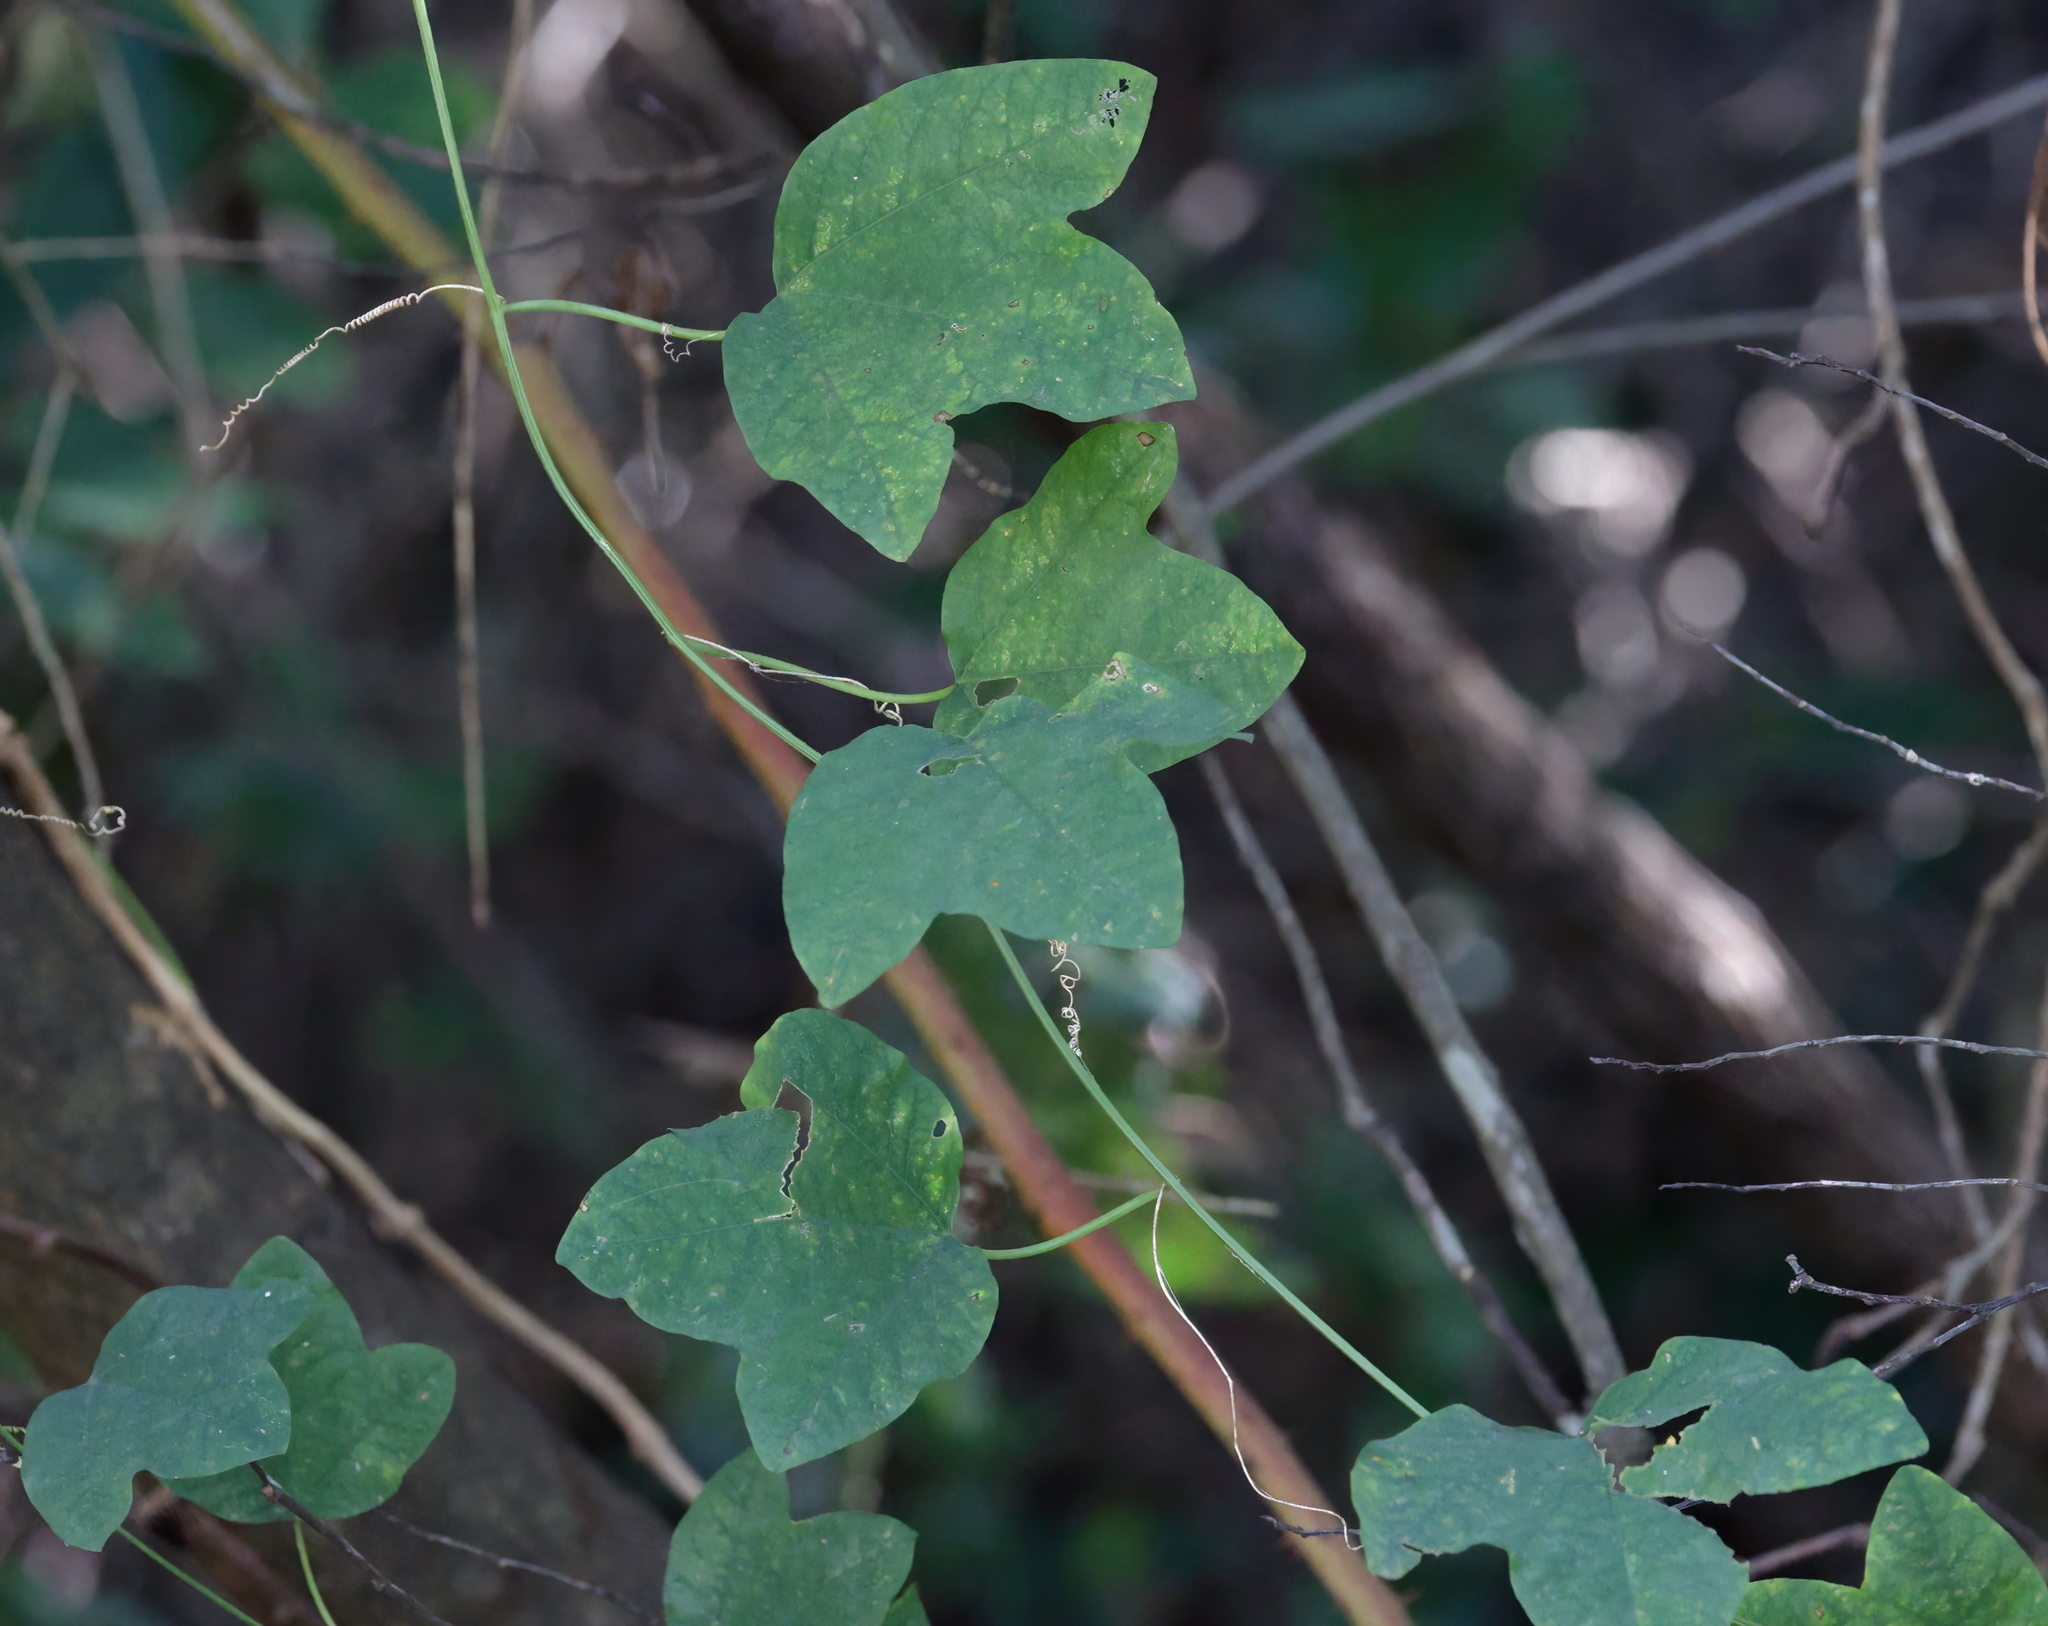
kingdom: Plantae
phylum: Tracheophyta
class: Magnoliopsida
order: Malpighiales
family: Passifloraceae
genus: Passiflora
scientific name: Passiflora lutea
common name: Yellow passionflower
